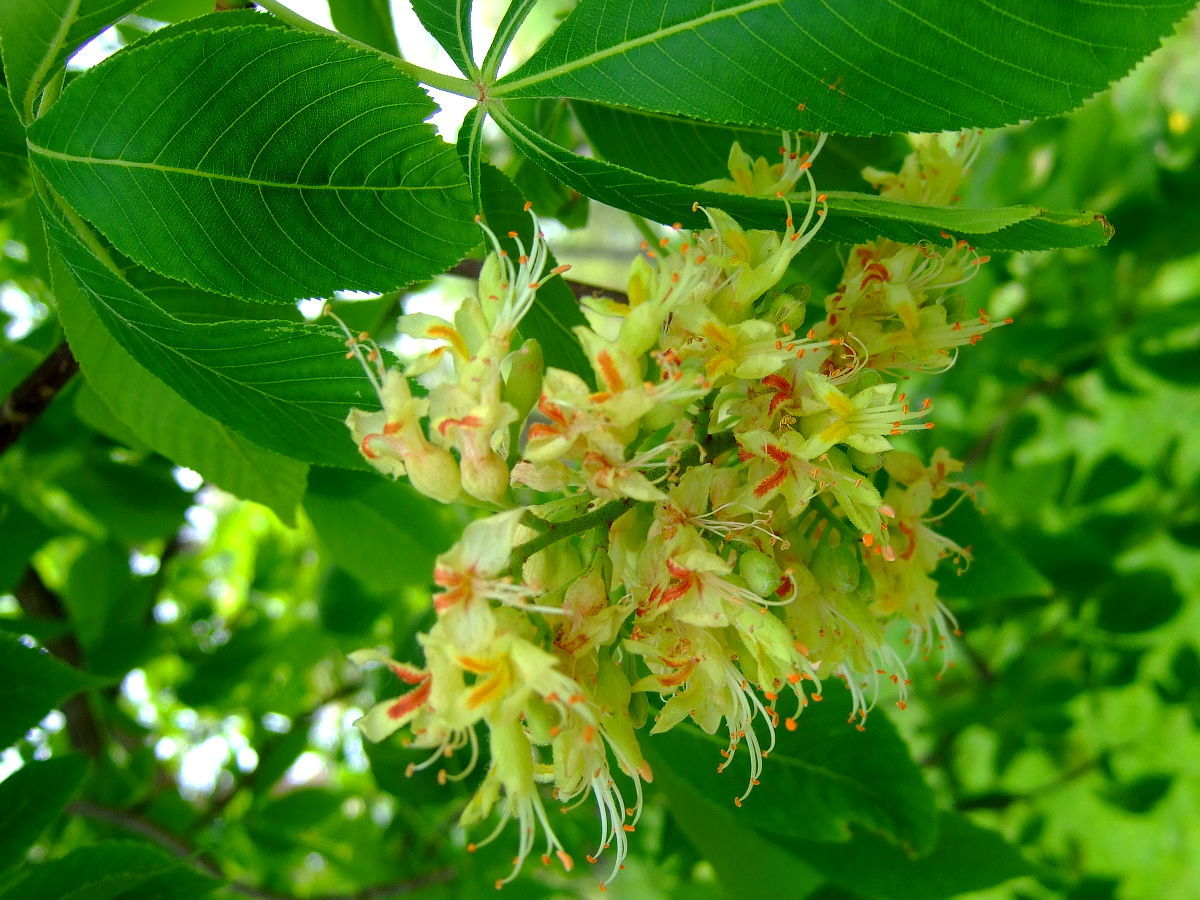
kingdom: Plantae
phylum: Tracheophyta
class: Magnoliopsida
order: Sapindales
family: Sapindaceae
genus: Aesculus
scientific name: Aesculus glabra
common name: Ohio buckeye
